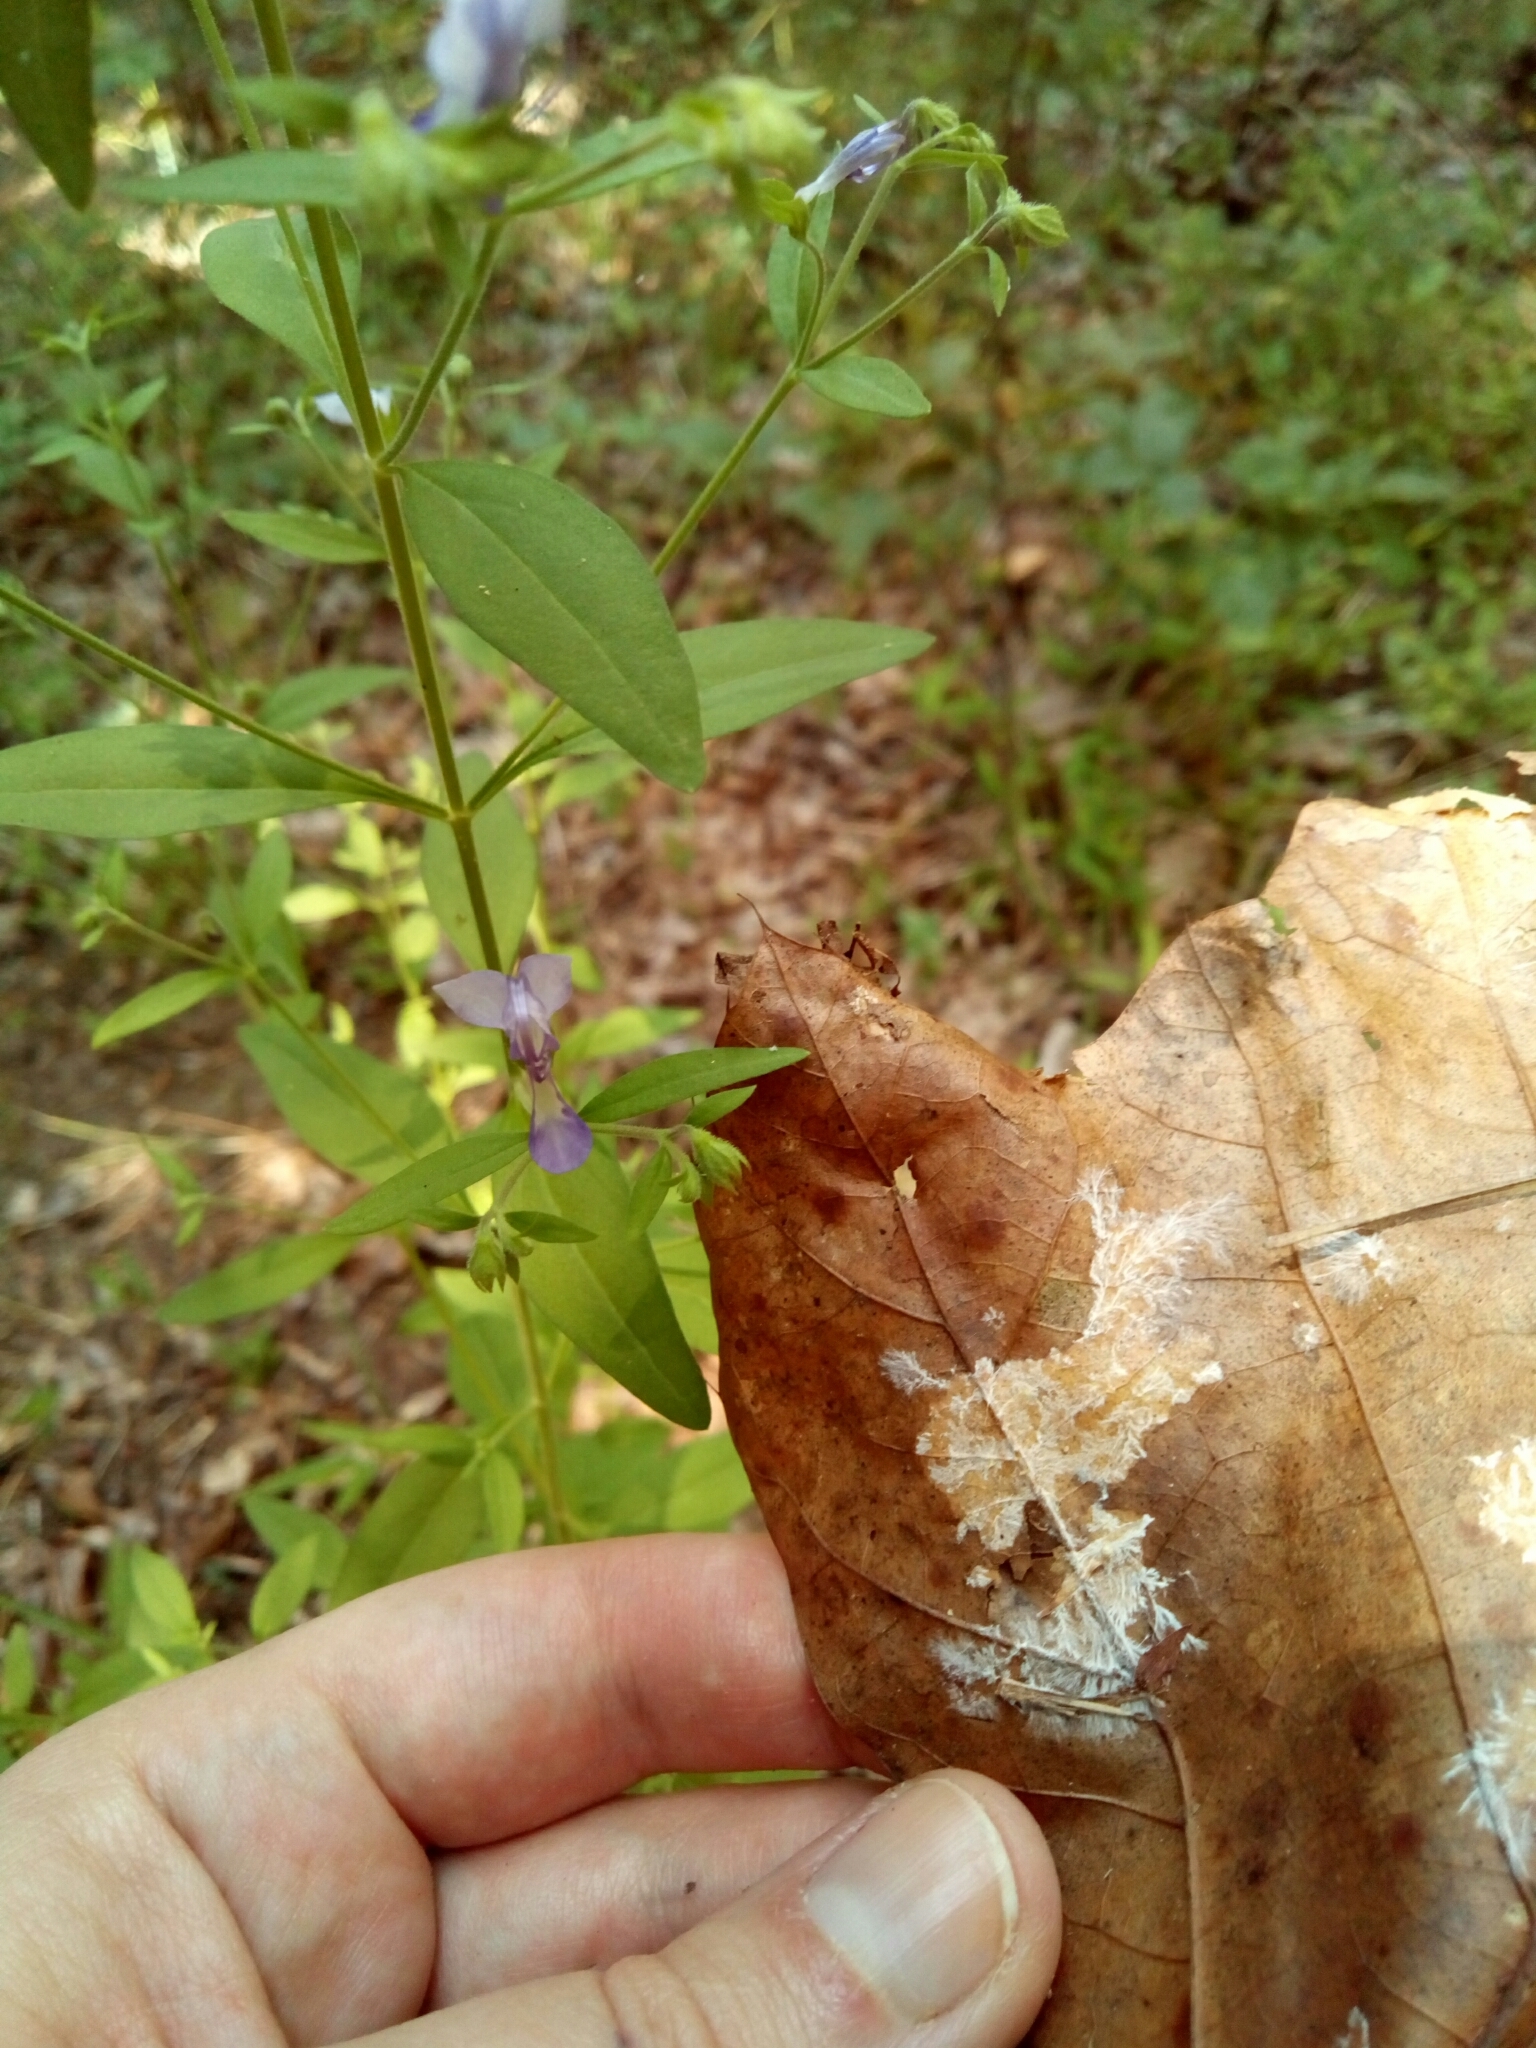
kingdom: Plantae
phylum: Tracheophyta
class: Magnoliopsida
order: Lamiales
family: Lamiaceae
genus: Trichostema
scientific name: Trichostema dichotomum
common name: Bastard pennyroyal
